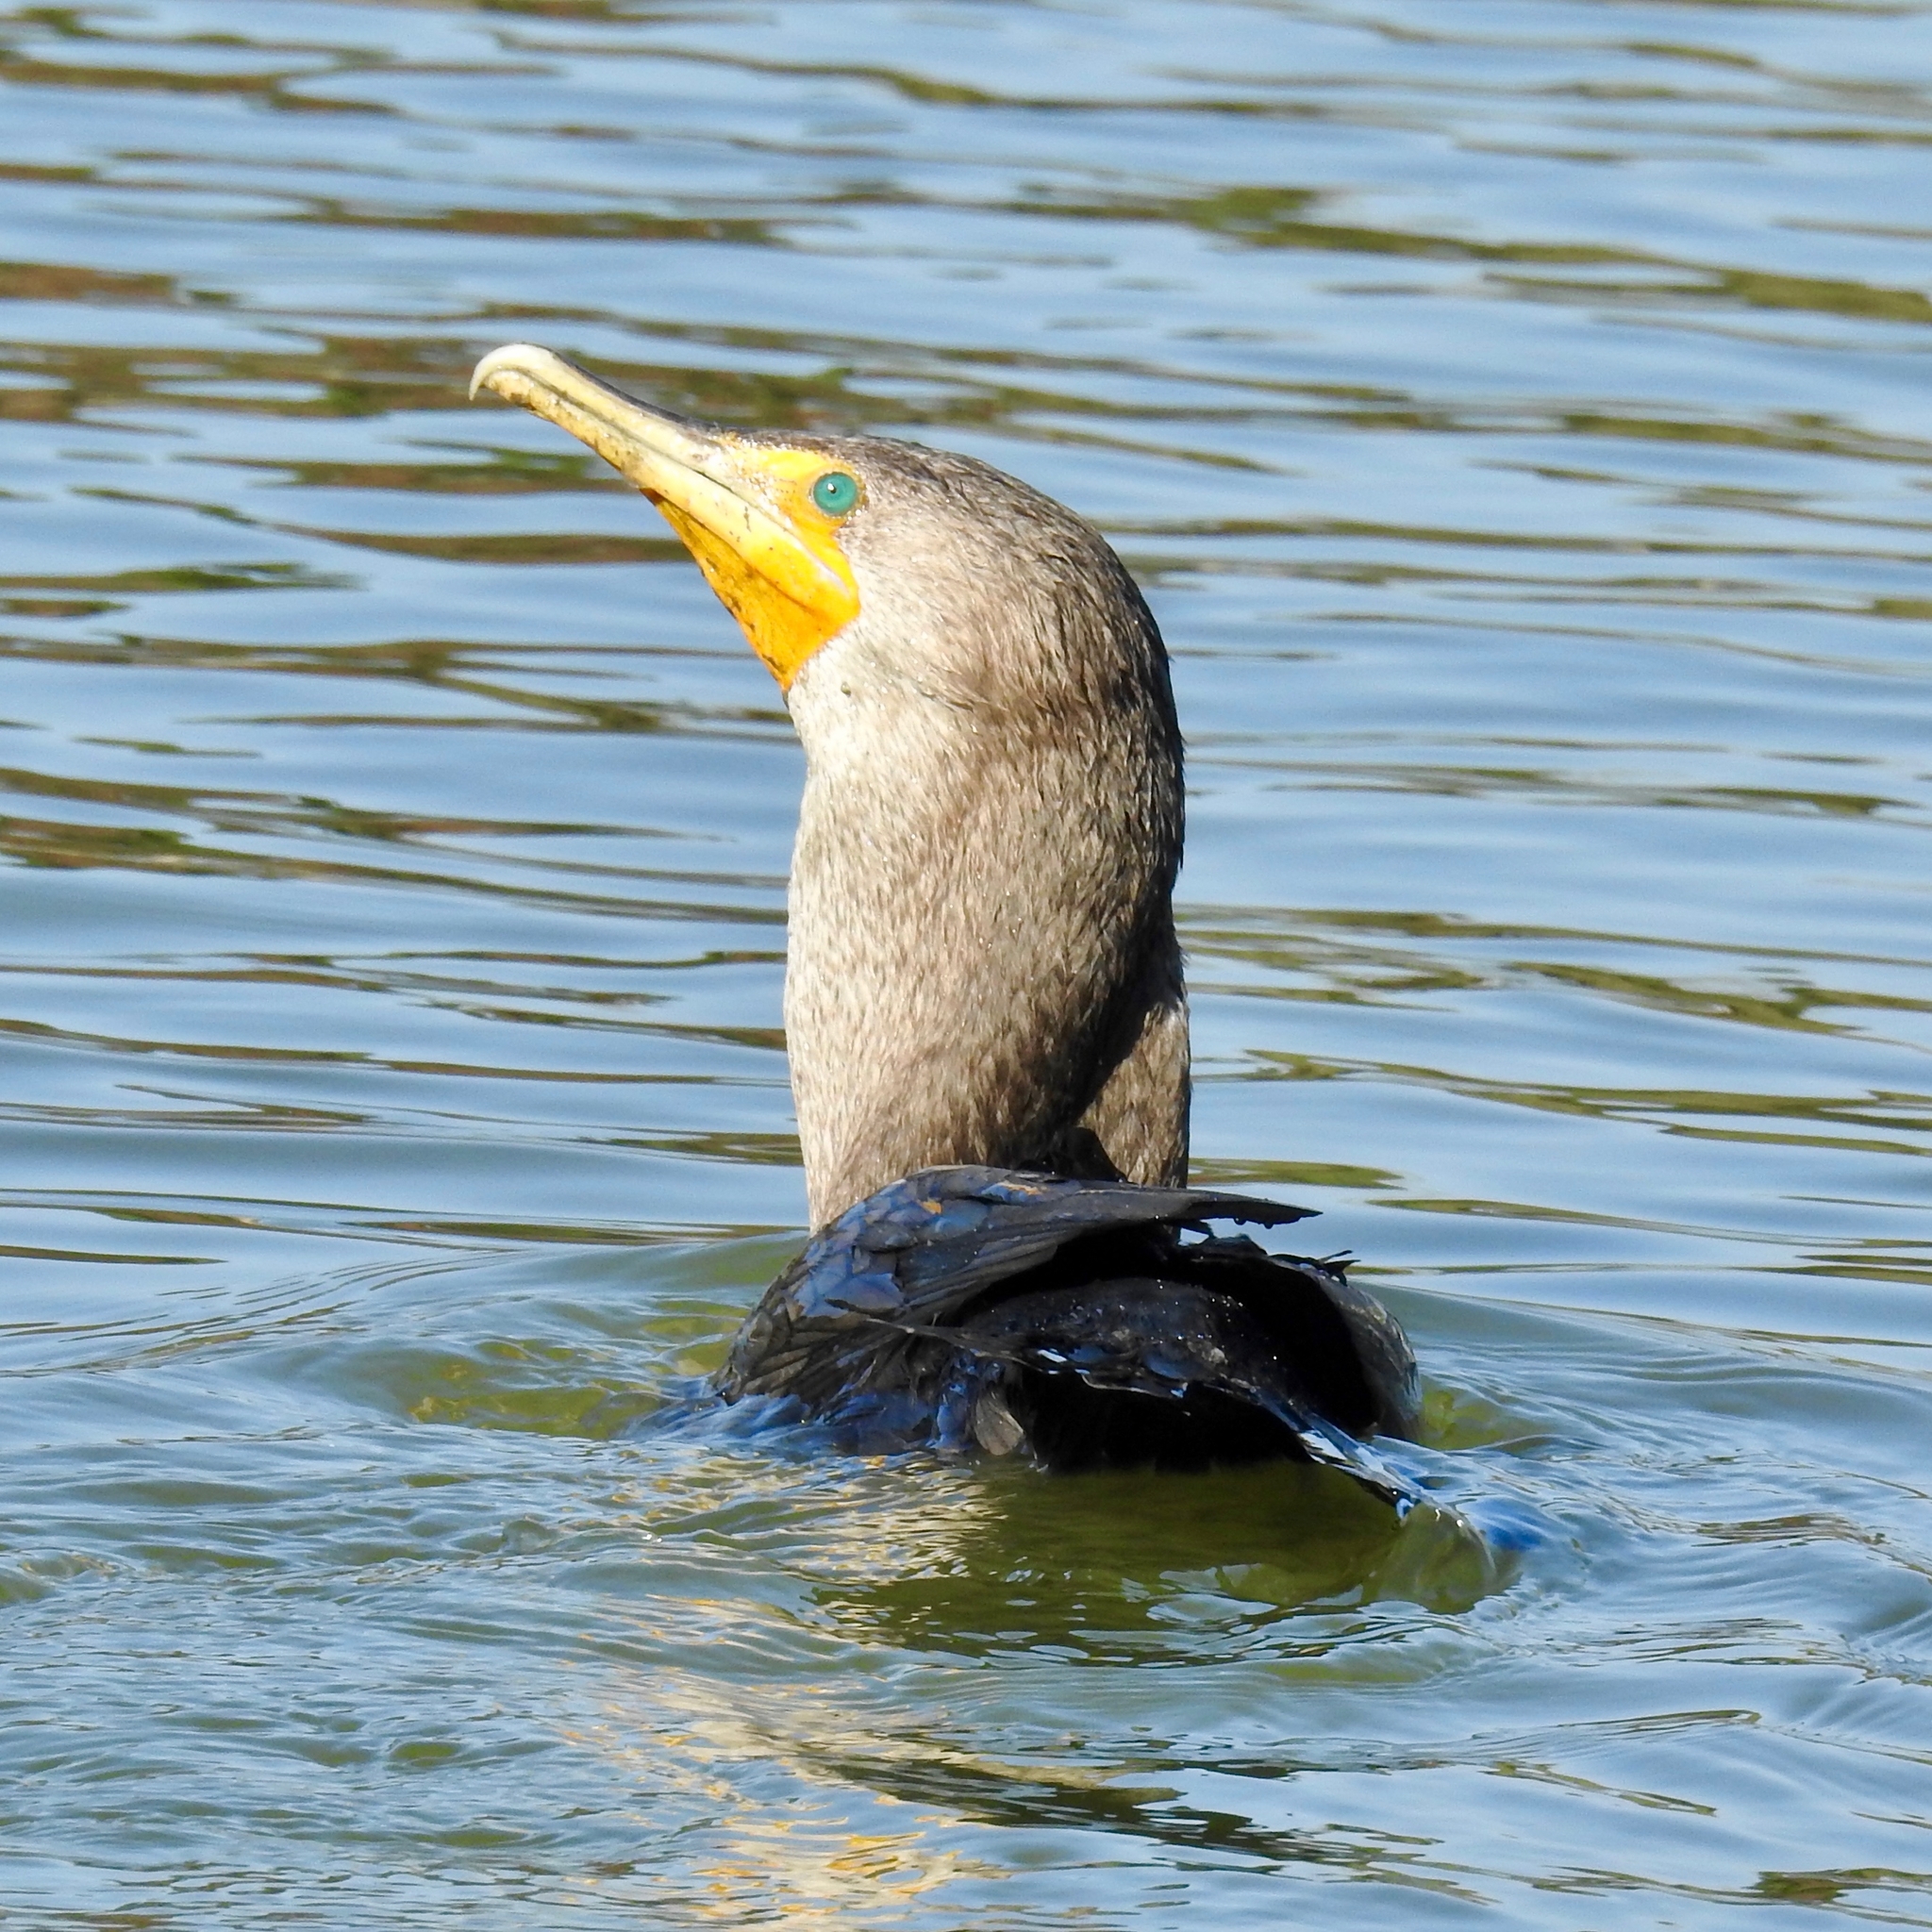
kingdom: Animalia
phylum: Chordata
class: Aves
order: Suliformes
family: Phalacrocoracidae
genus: Phalacrocorax
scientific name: Phalacrocorax auritus
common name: Double-crested cormorant
